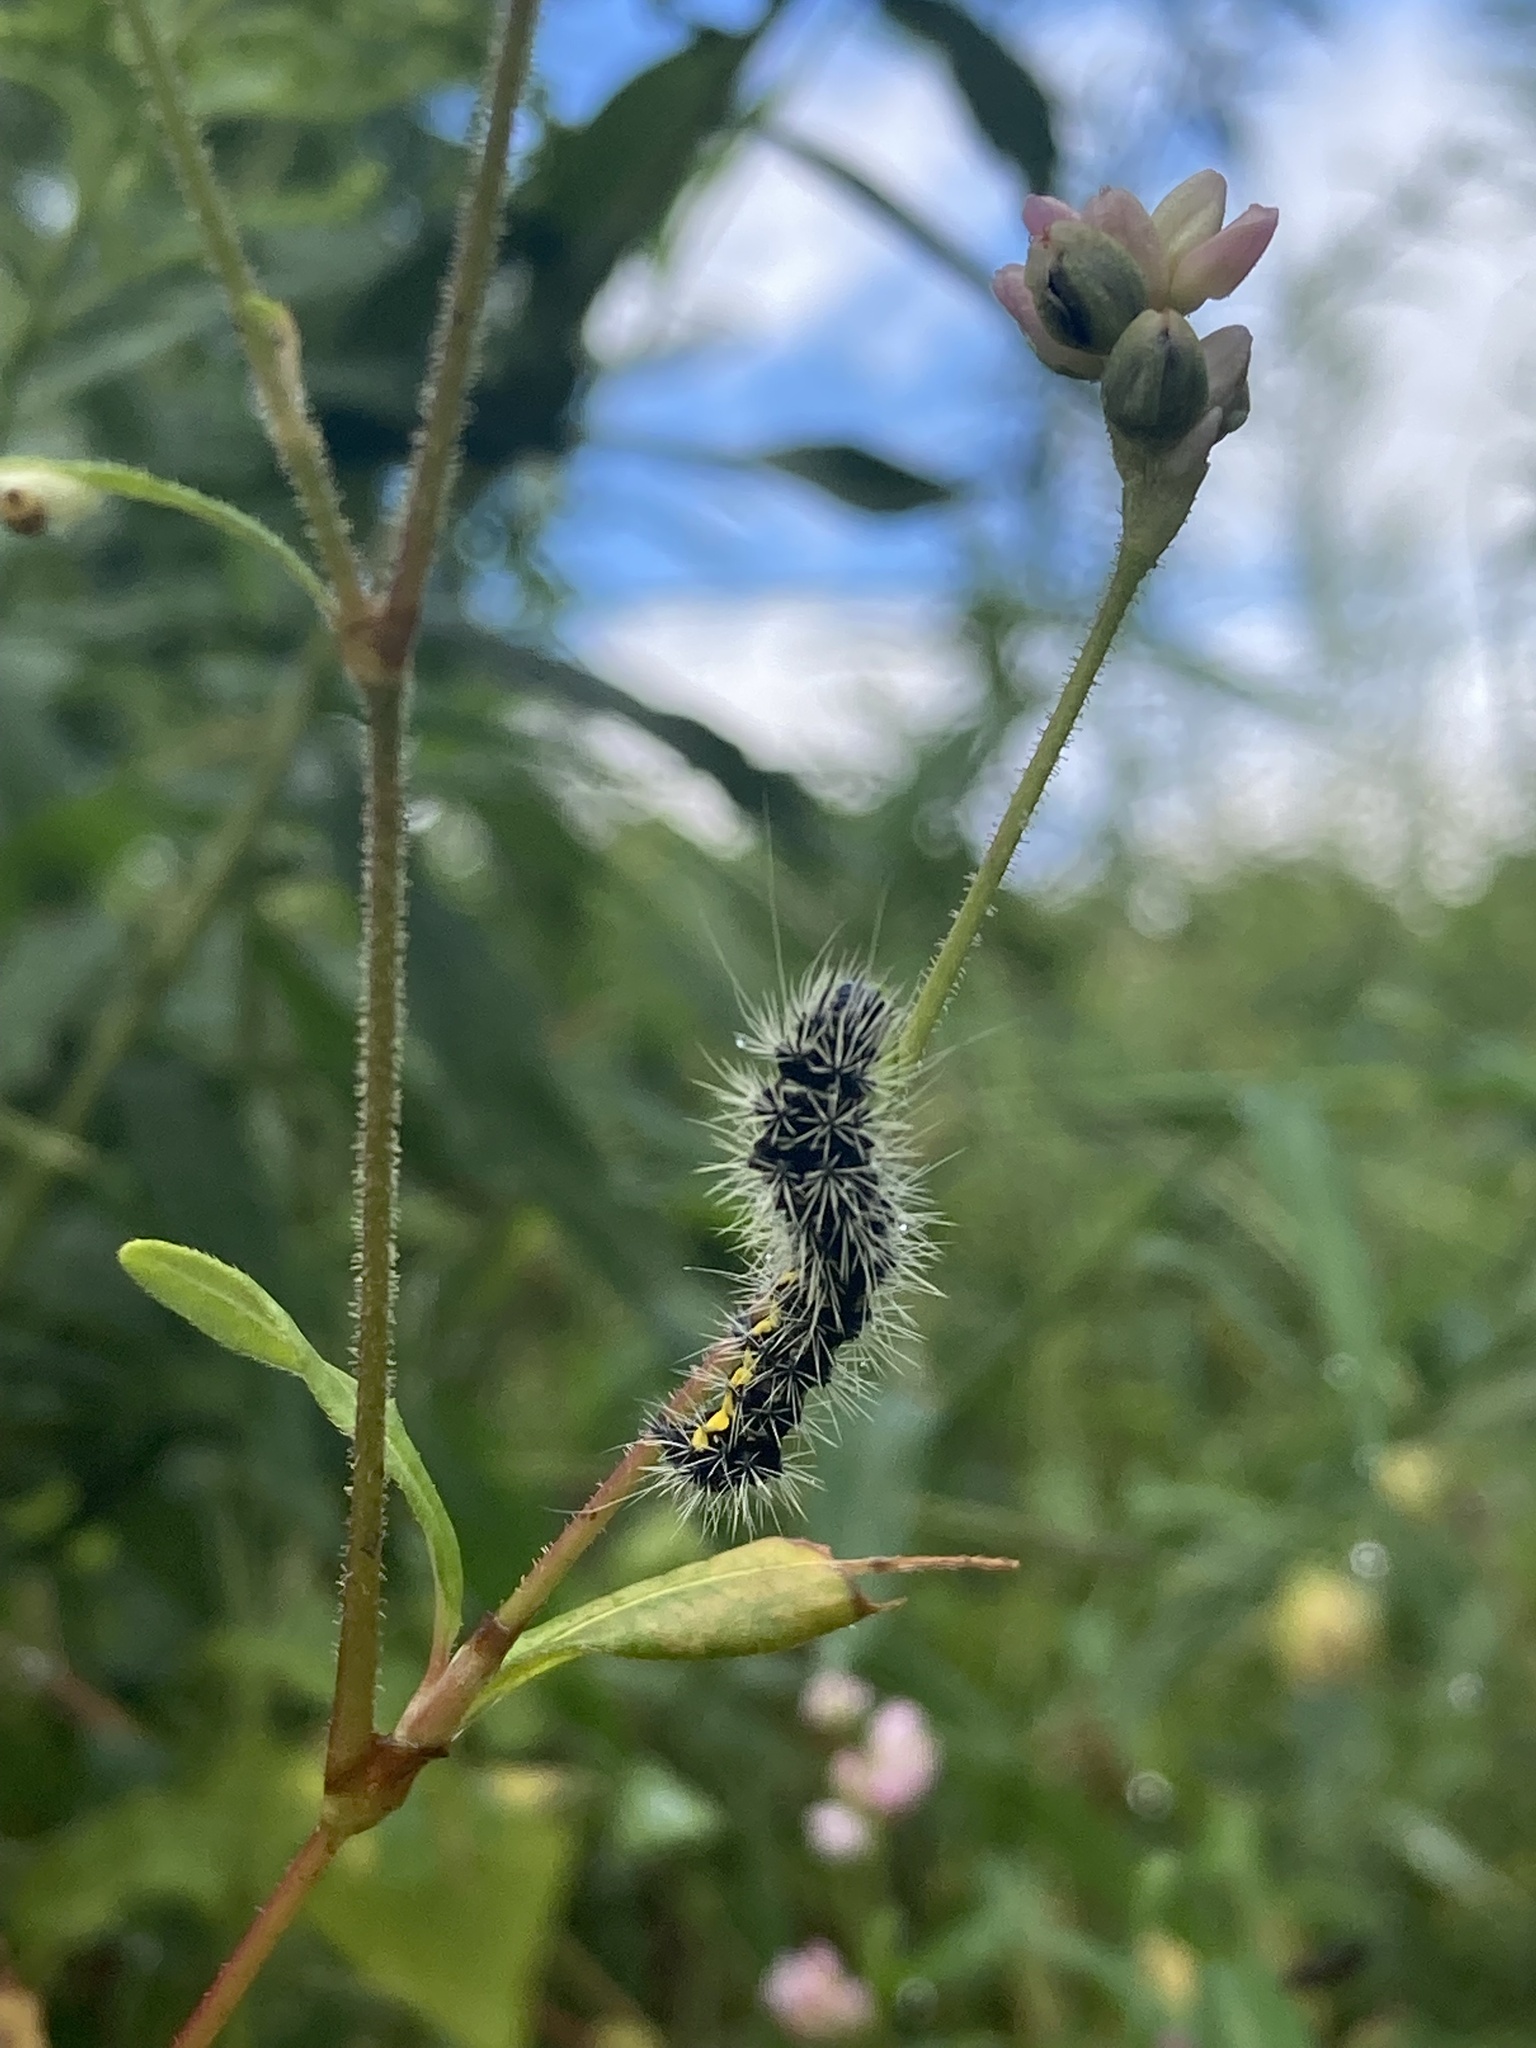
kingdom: Animalia
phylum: Arthropoda
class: Insecta
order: Lepidoptera
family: Noctuidae
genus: Acronicta
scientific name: Acronicta oblinita
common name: Smeared dagger
